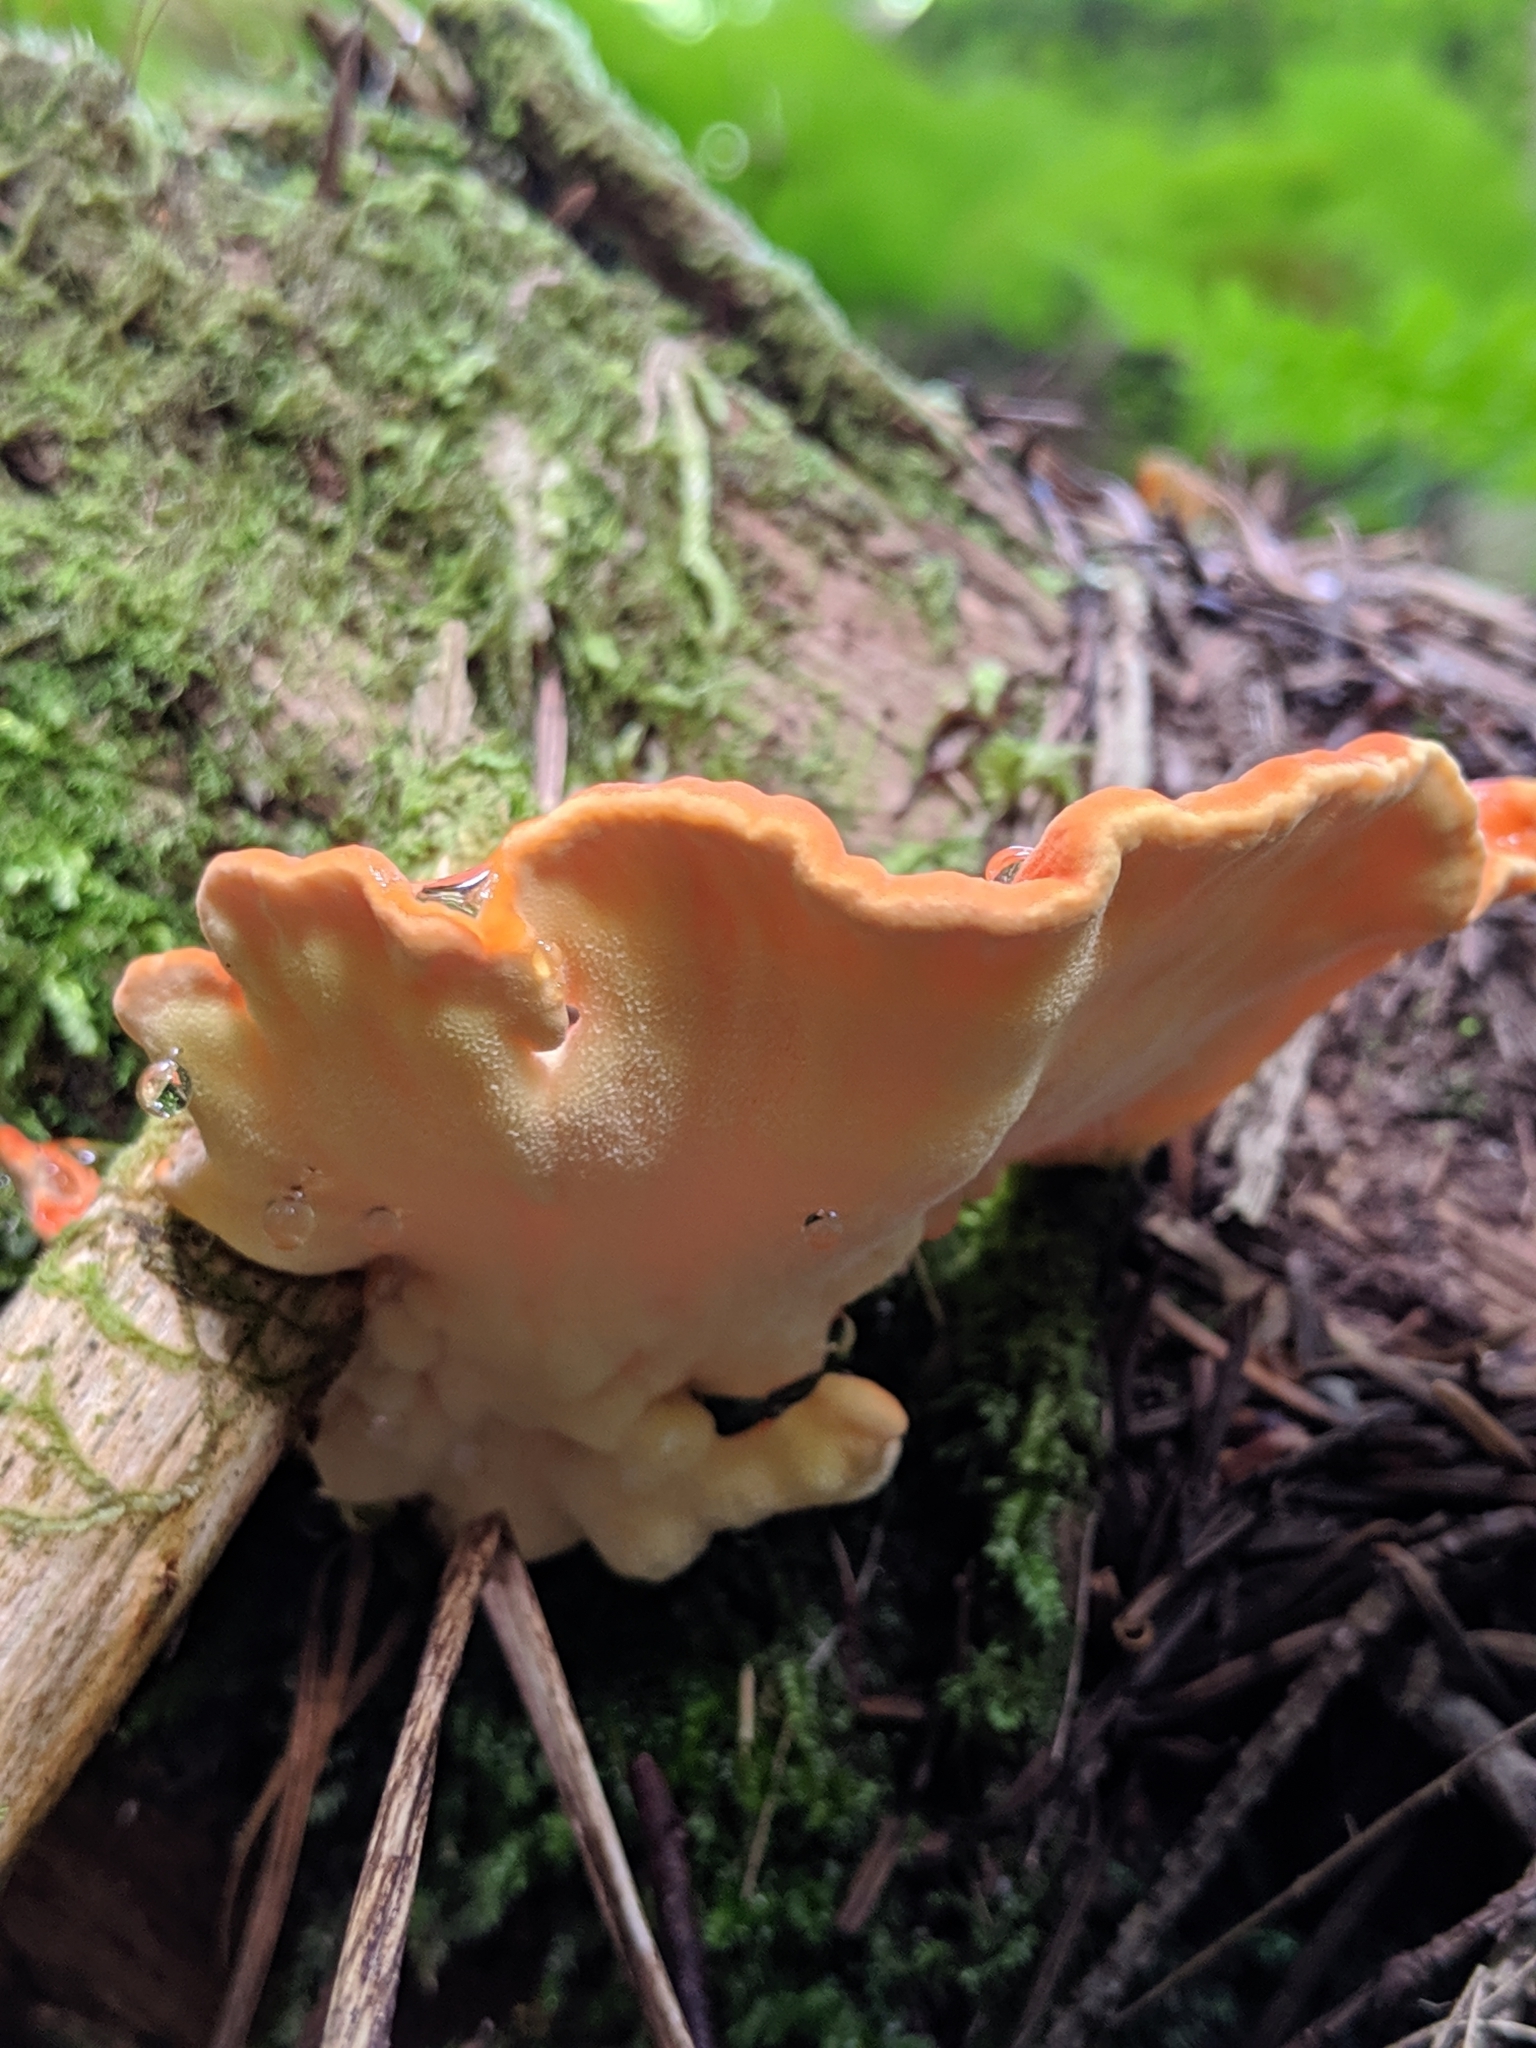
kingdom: Fungi
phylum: Basidiomycota
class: Agaricomycetes
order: Polyporales
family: Laetiporaceae
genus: Laetiporus
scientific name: Laetiporus conifericola
